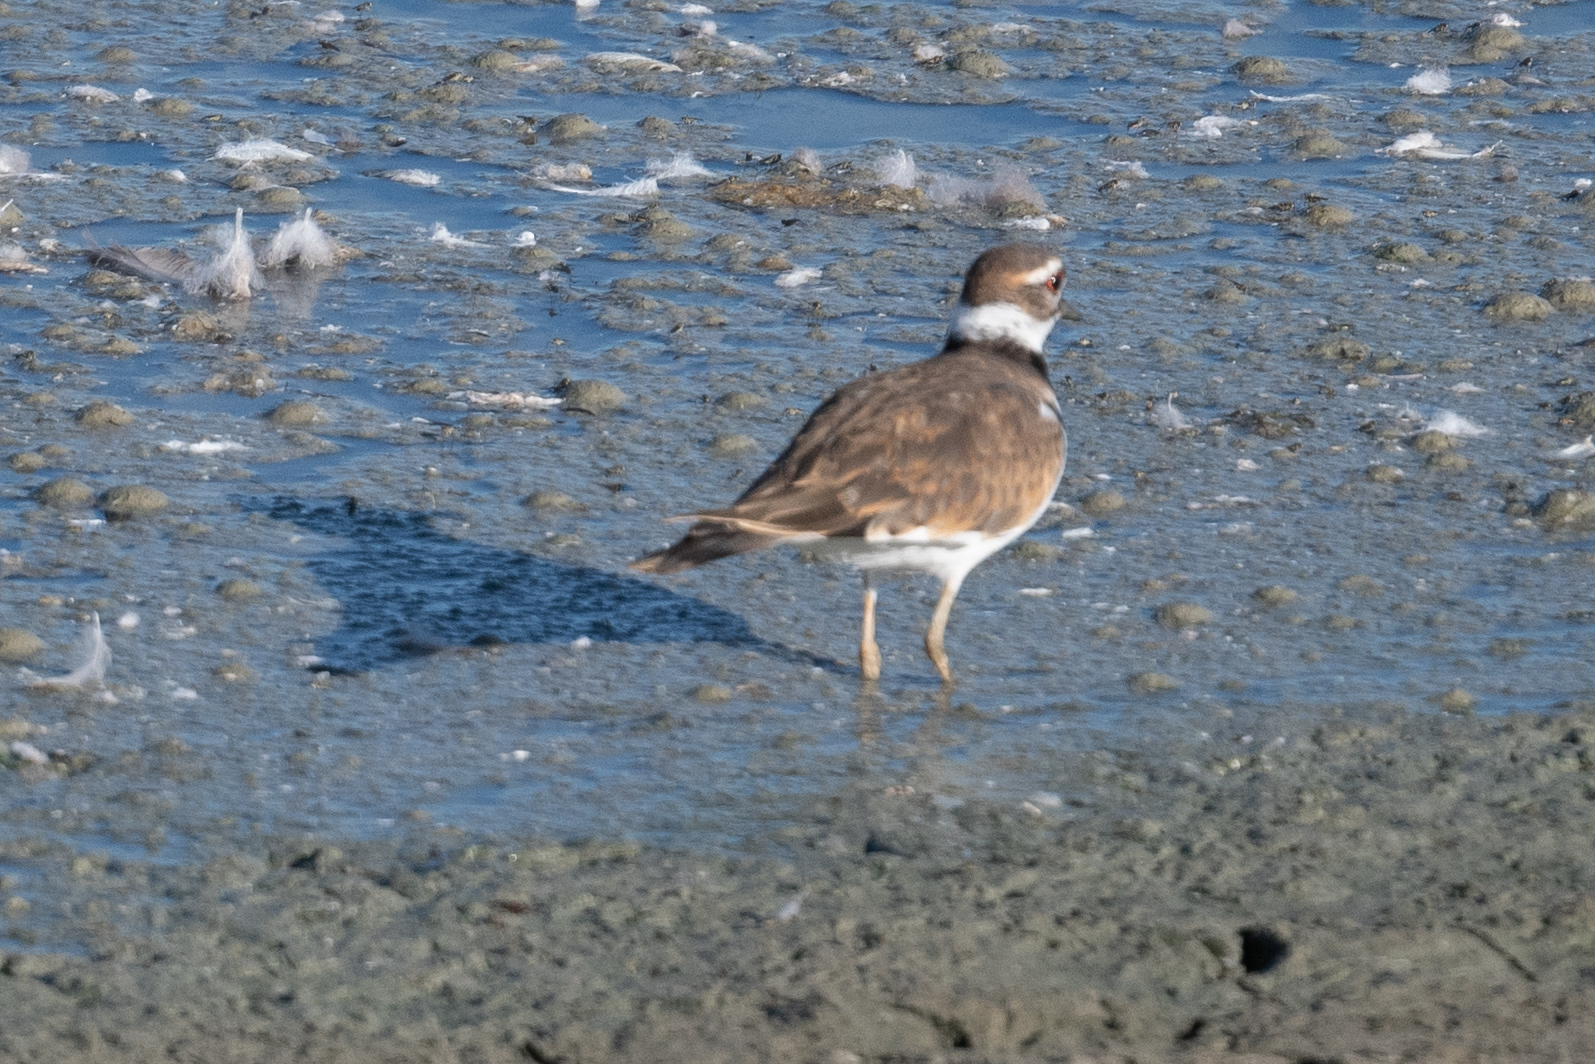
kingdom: Animalia
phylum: Chordata
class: Aves
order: Charadriiformes
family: Charadriidae
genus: Charadrius
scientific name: Charadrius vociferus
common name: Killdeer
